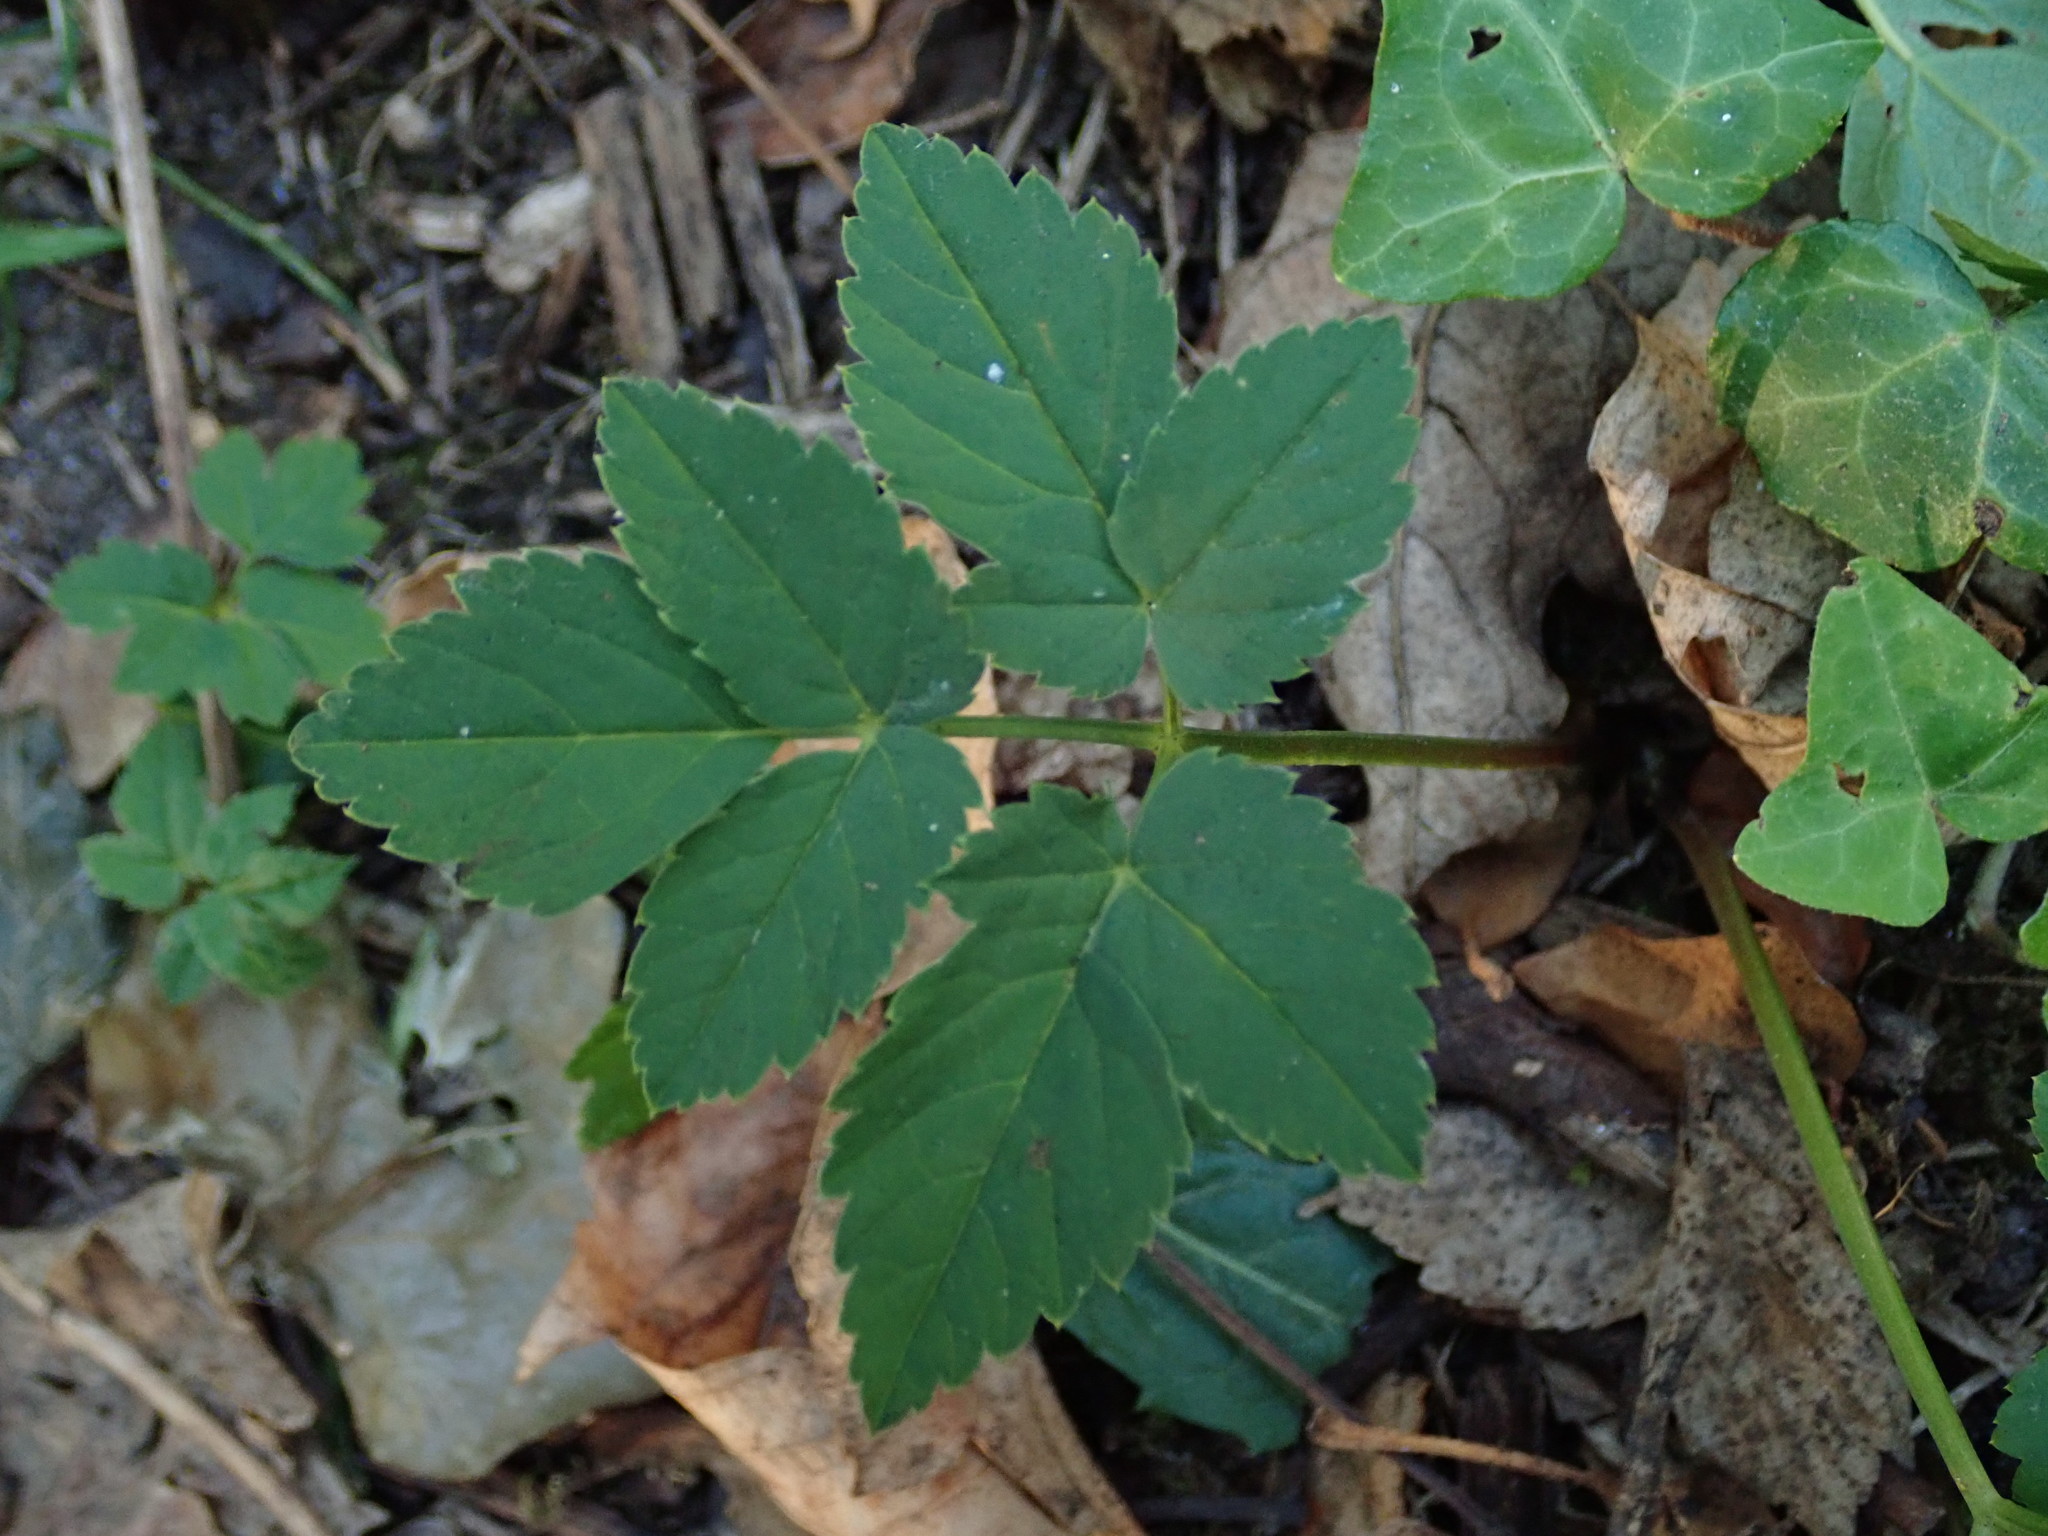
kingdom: Plantae
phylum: Tracheophyta
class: Magnoliopsida
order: Apiales
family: Apiaceae
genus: Aegopodium
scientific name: Aegopodium podagraria
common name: Ground-elder
